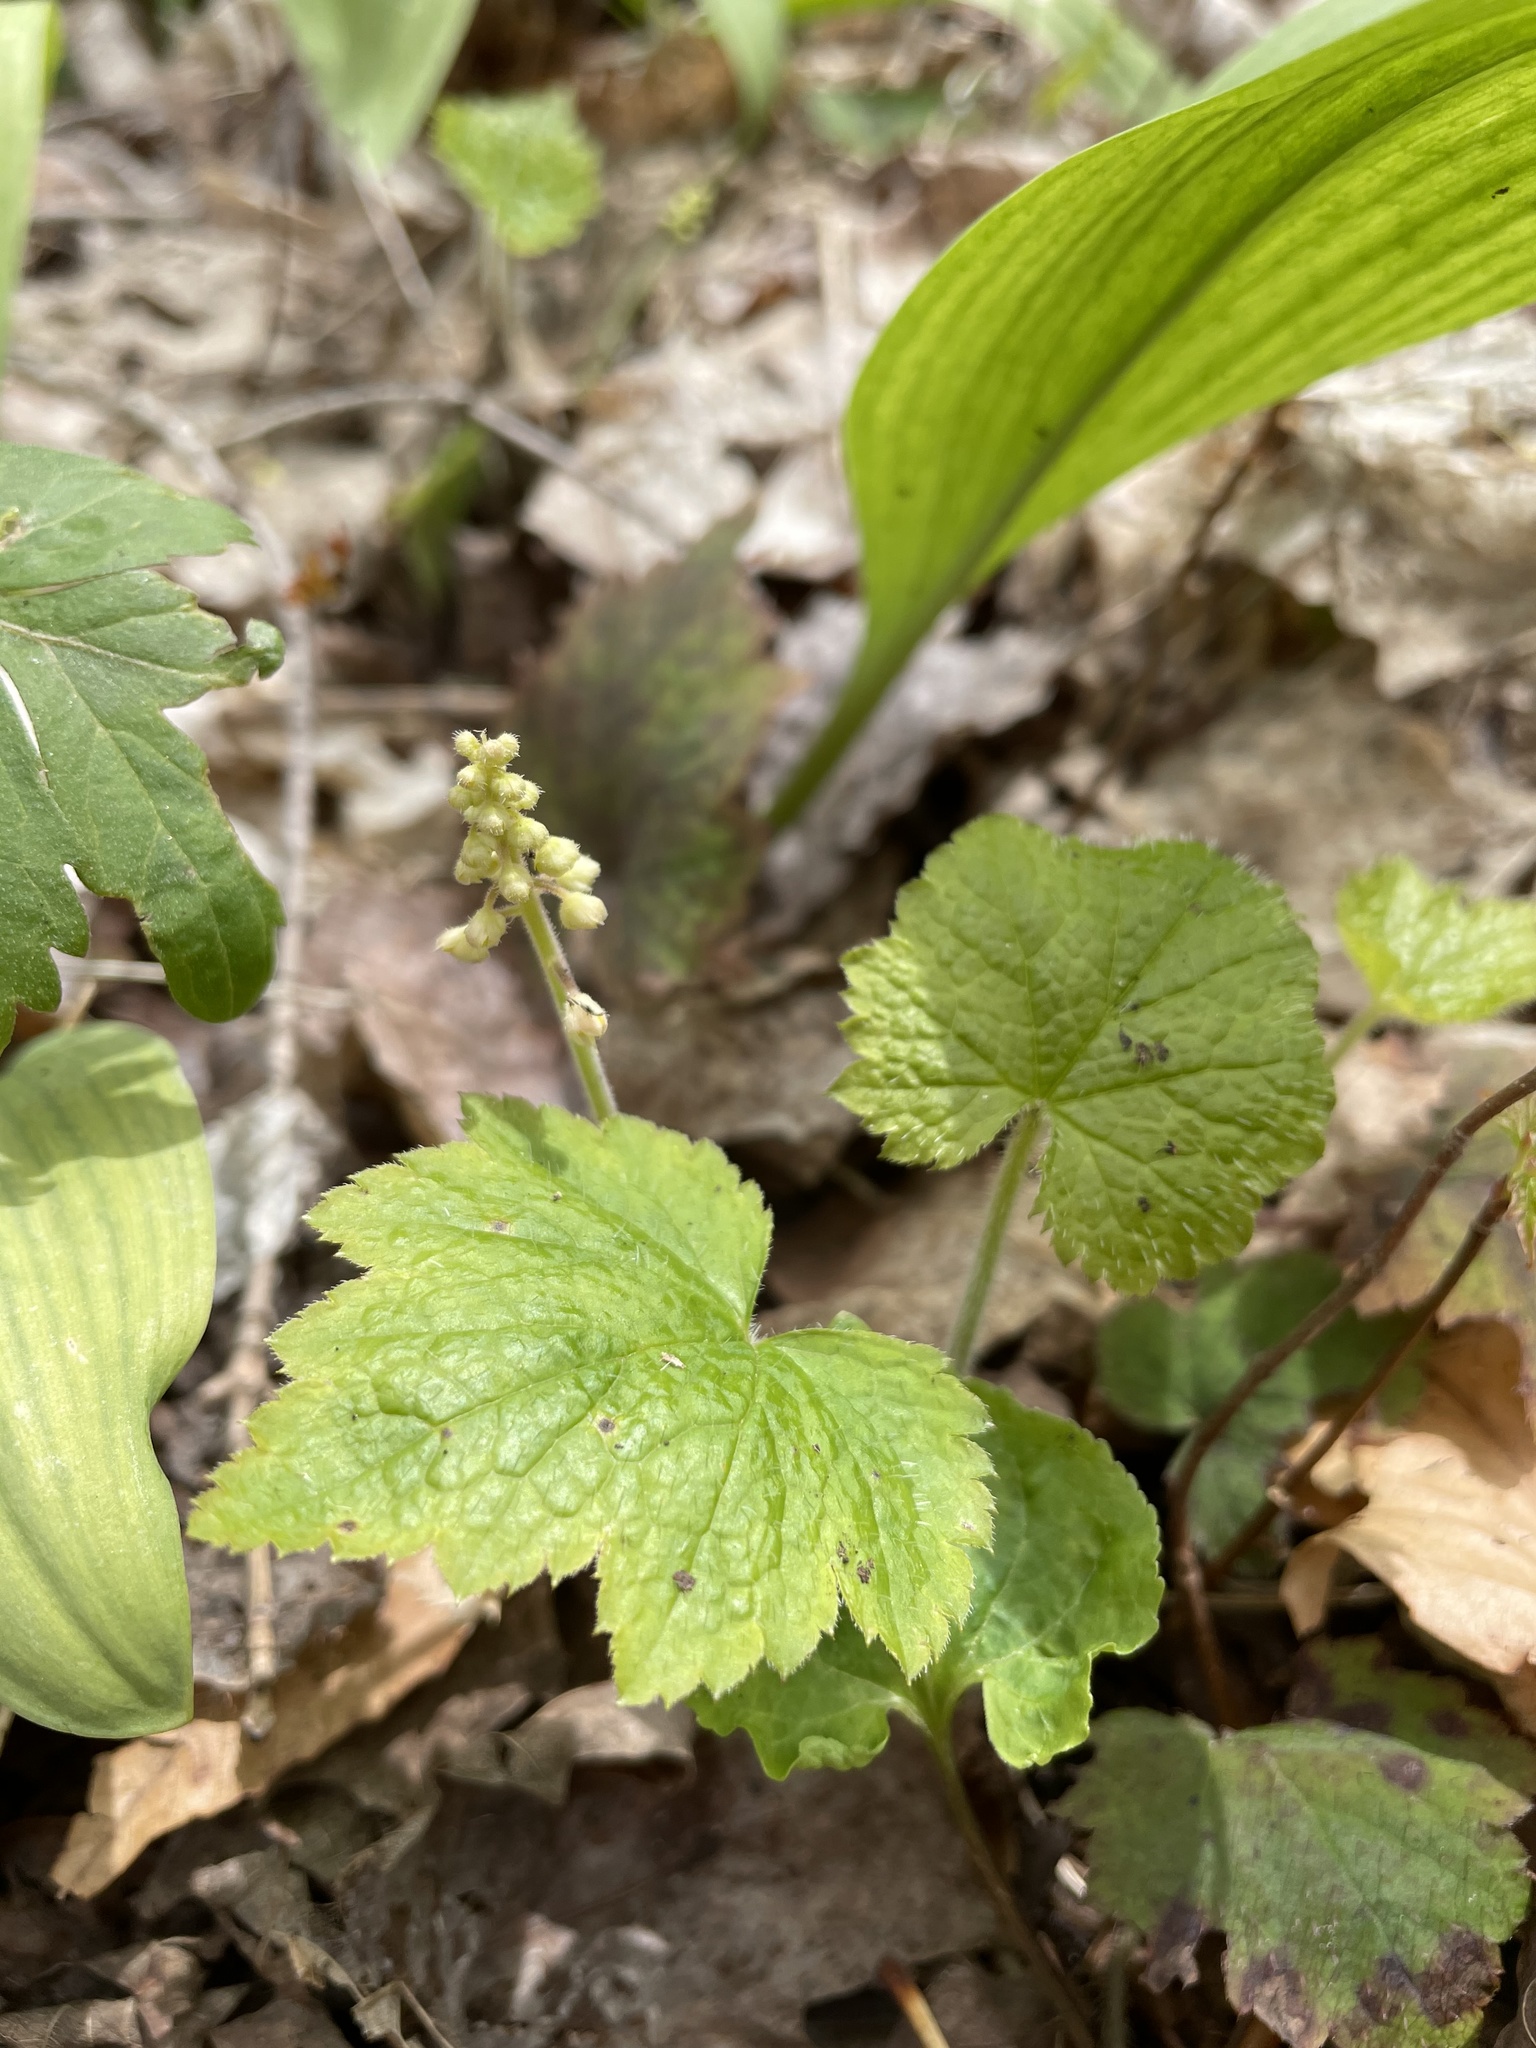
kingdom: Plantae
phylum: Tracheophyta
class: Magnoliopsida
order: Saxifragales
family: Saxifragaceae
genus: Tiarella
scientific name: Tiarella stolonifera
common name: Stoloniferous foamflower
